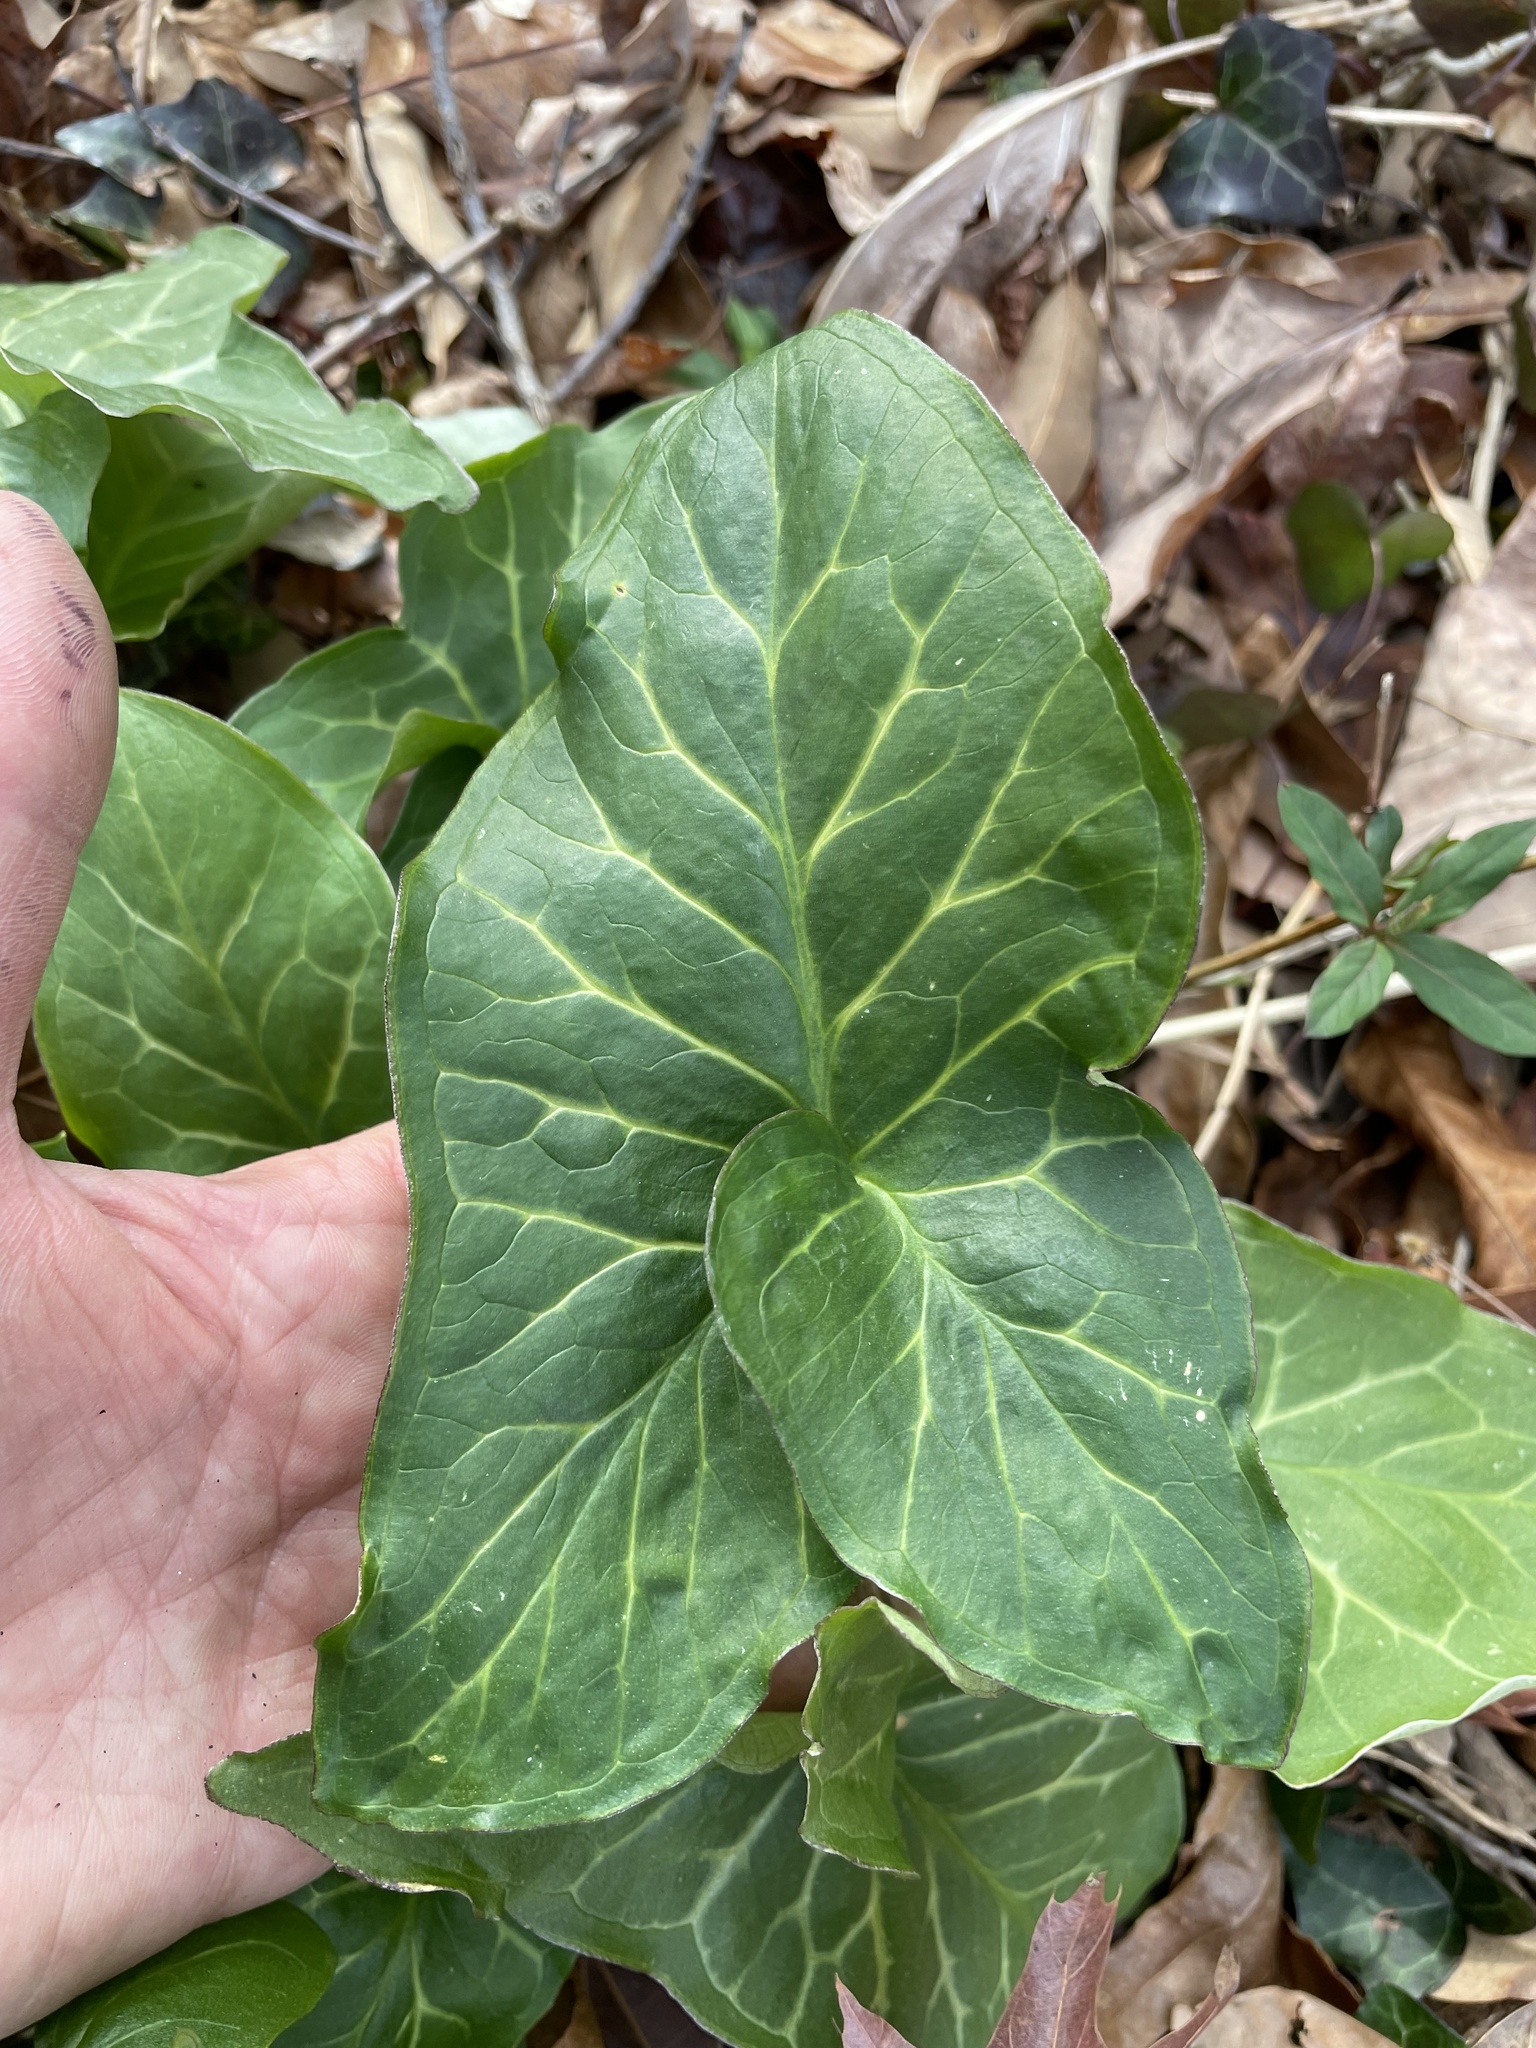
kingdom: Plantae
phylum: Tracheophyta
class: Liliopsida
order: Alismatales
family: Araceae
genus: Arum
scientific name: Arum italicum
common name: Italian lords-and-ladies
